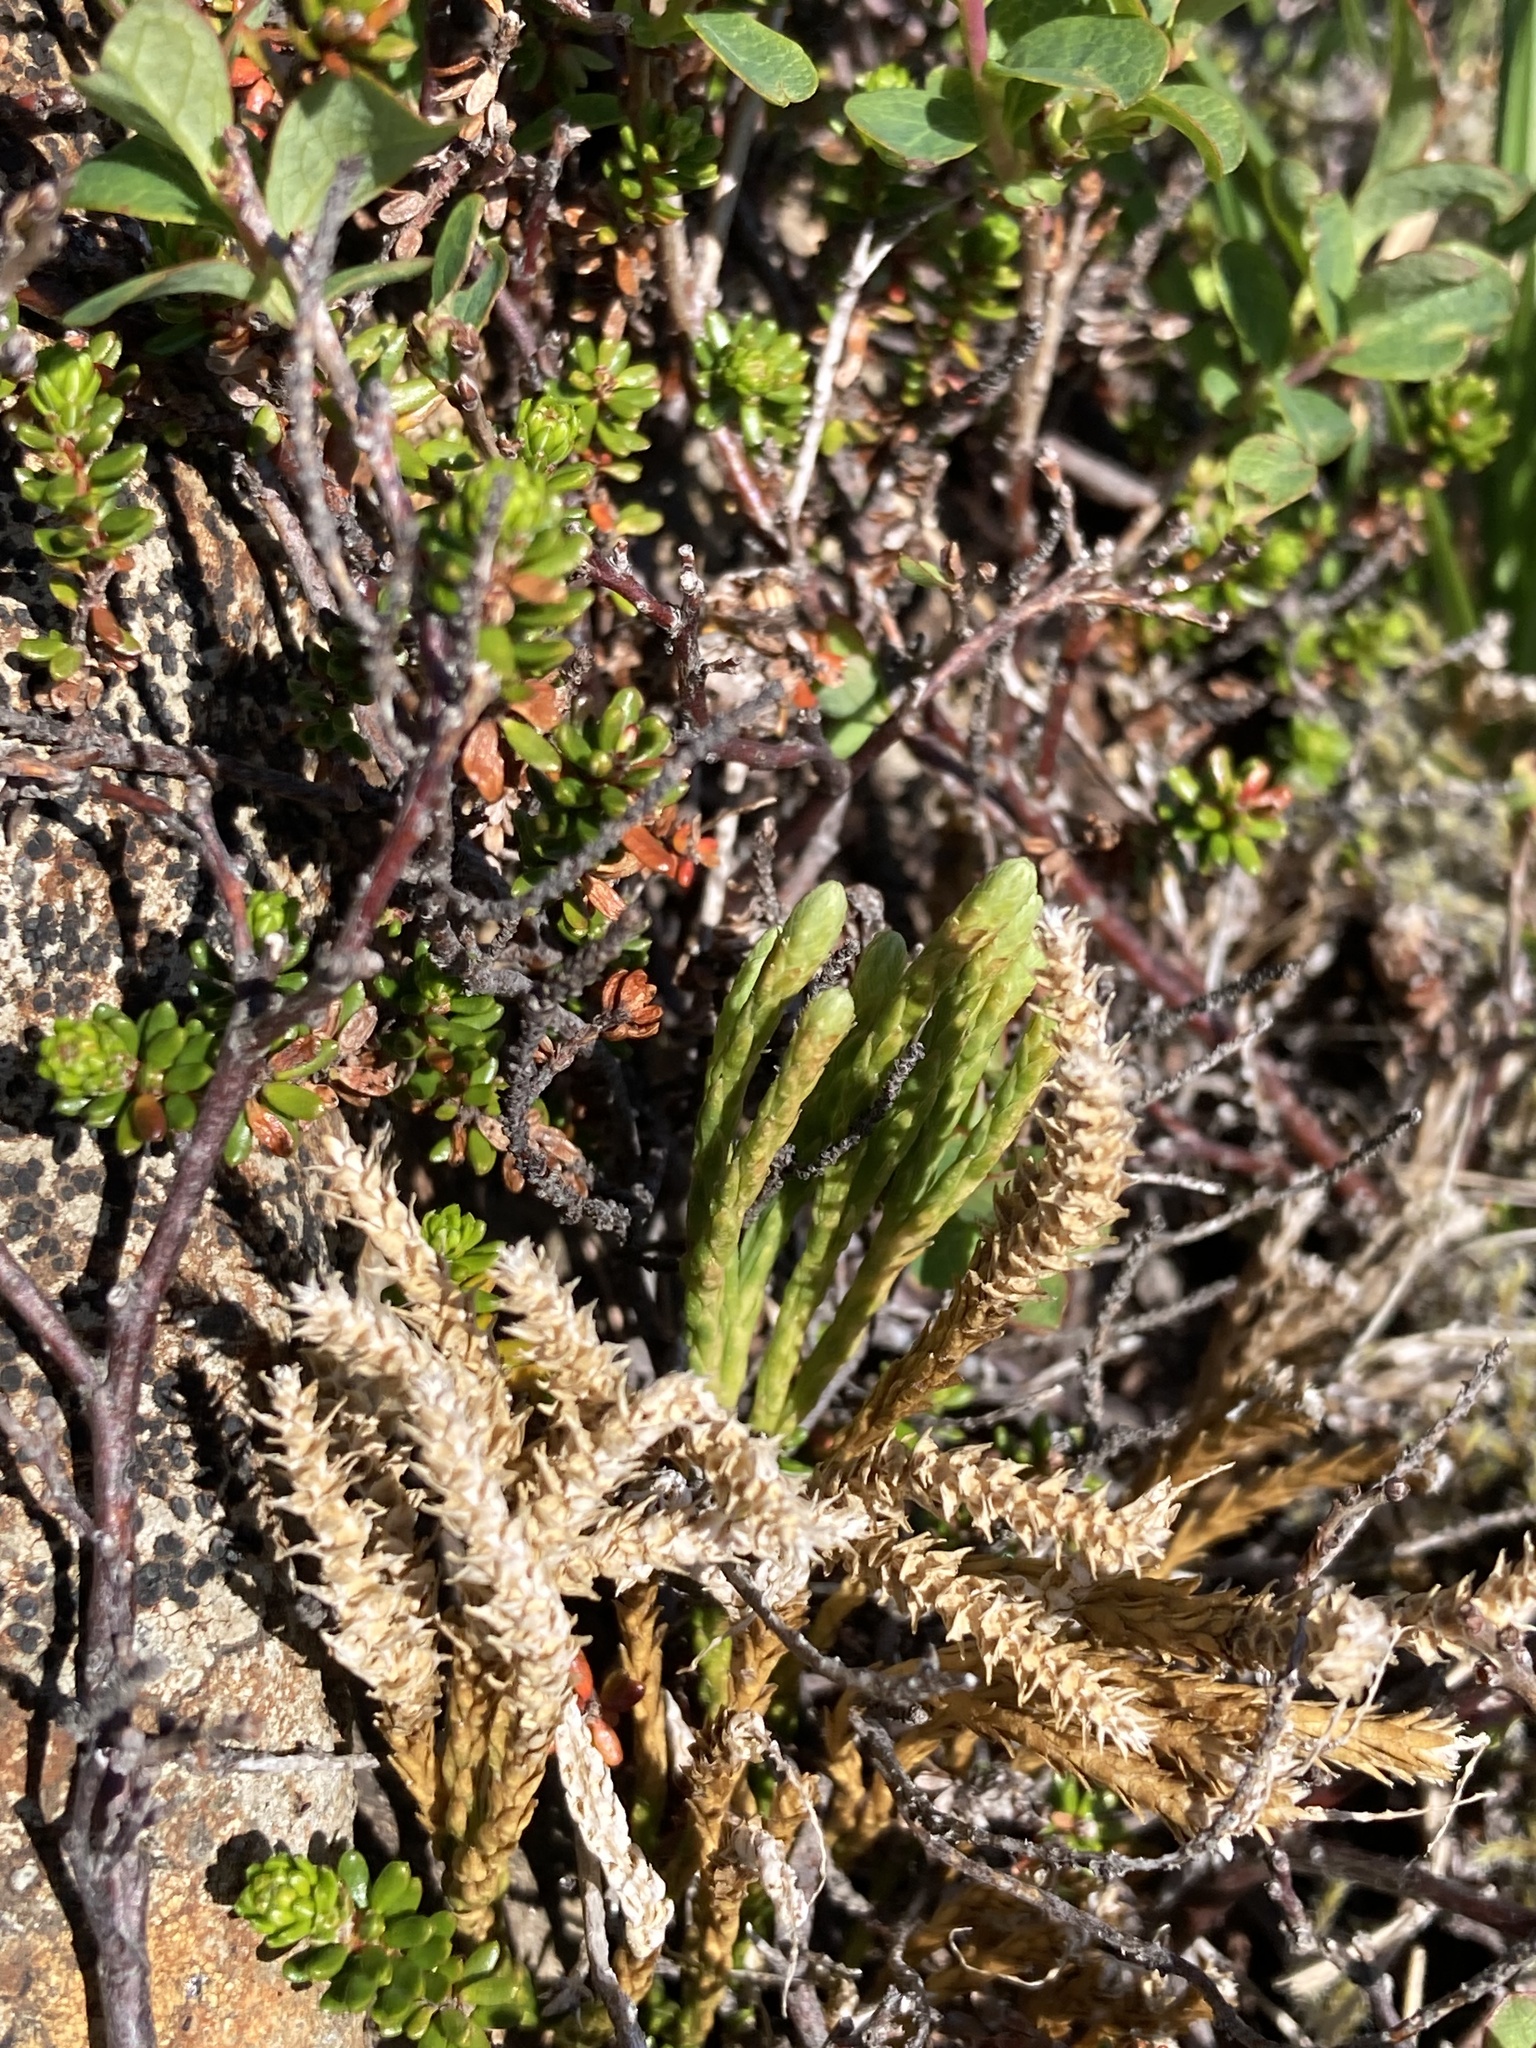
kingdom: Plantae
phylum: Tracheophyta
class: Lycopodiopsida
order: Lycopodiales
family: Lycopodiaceae
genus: Diphasiastrum
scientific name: Diphasiastrum alpinum
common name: Alpine clubmoss
